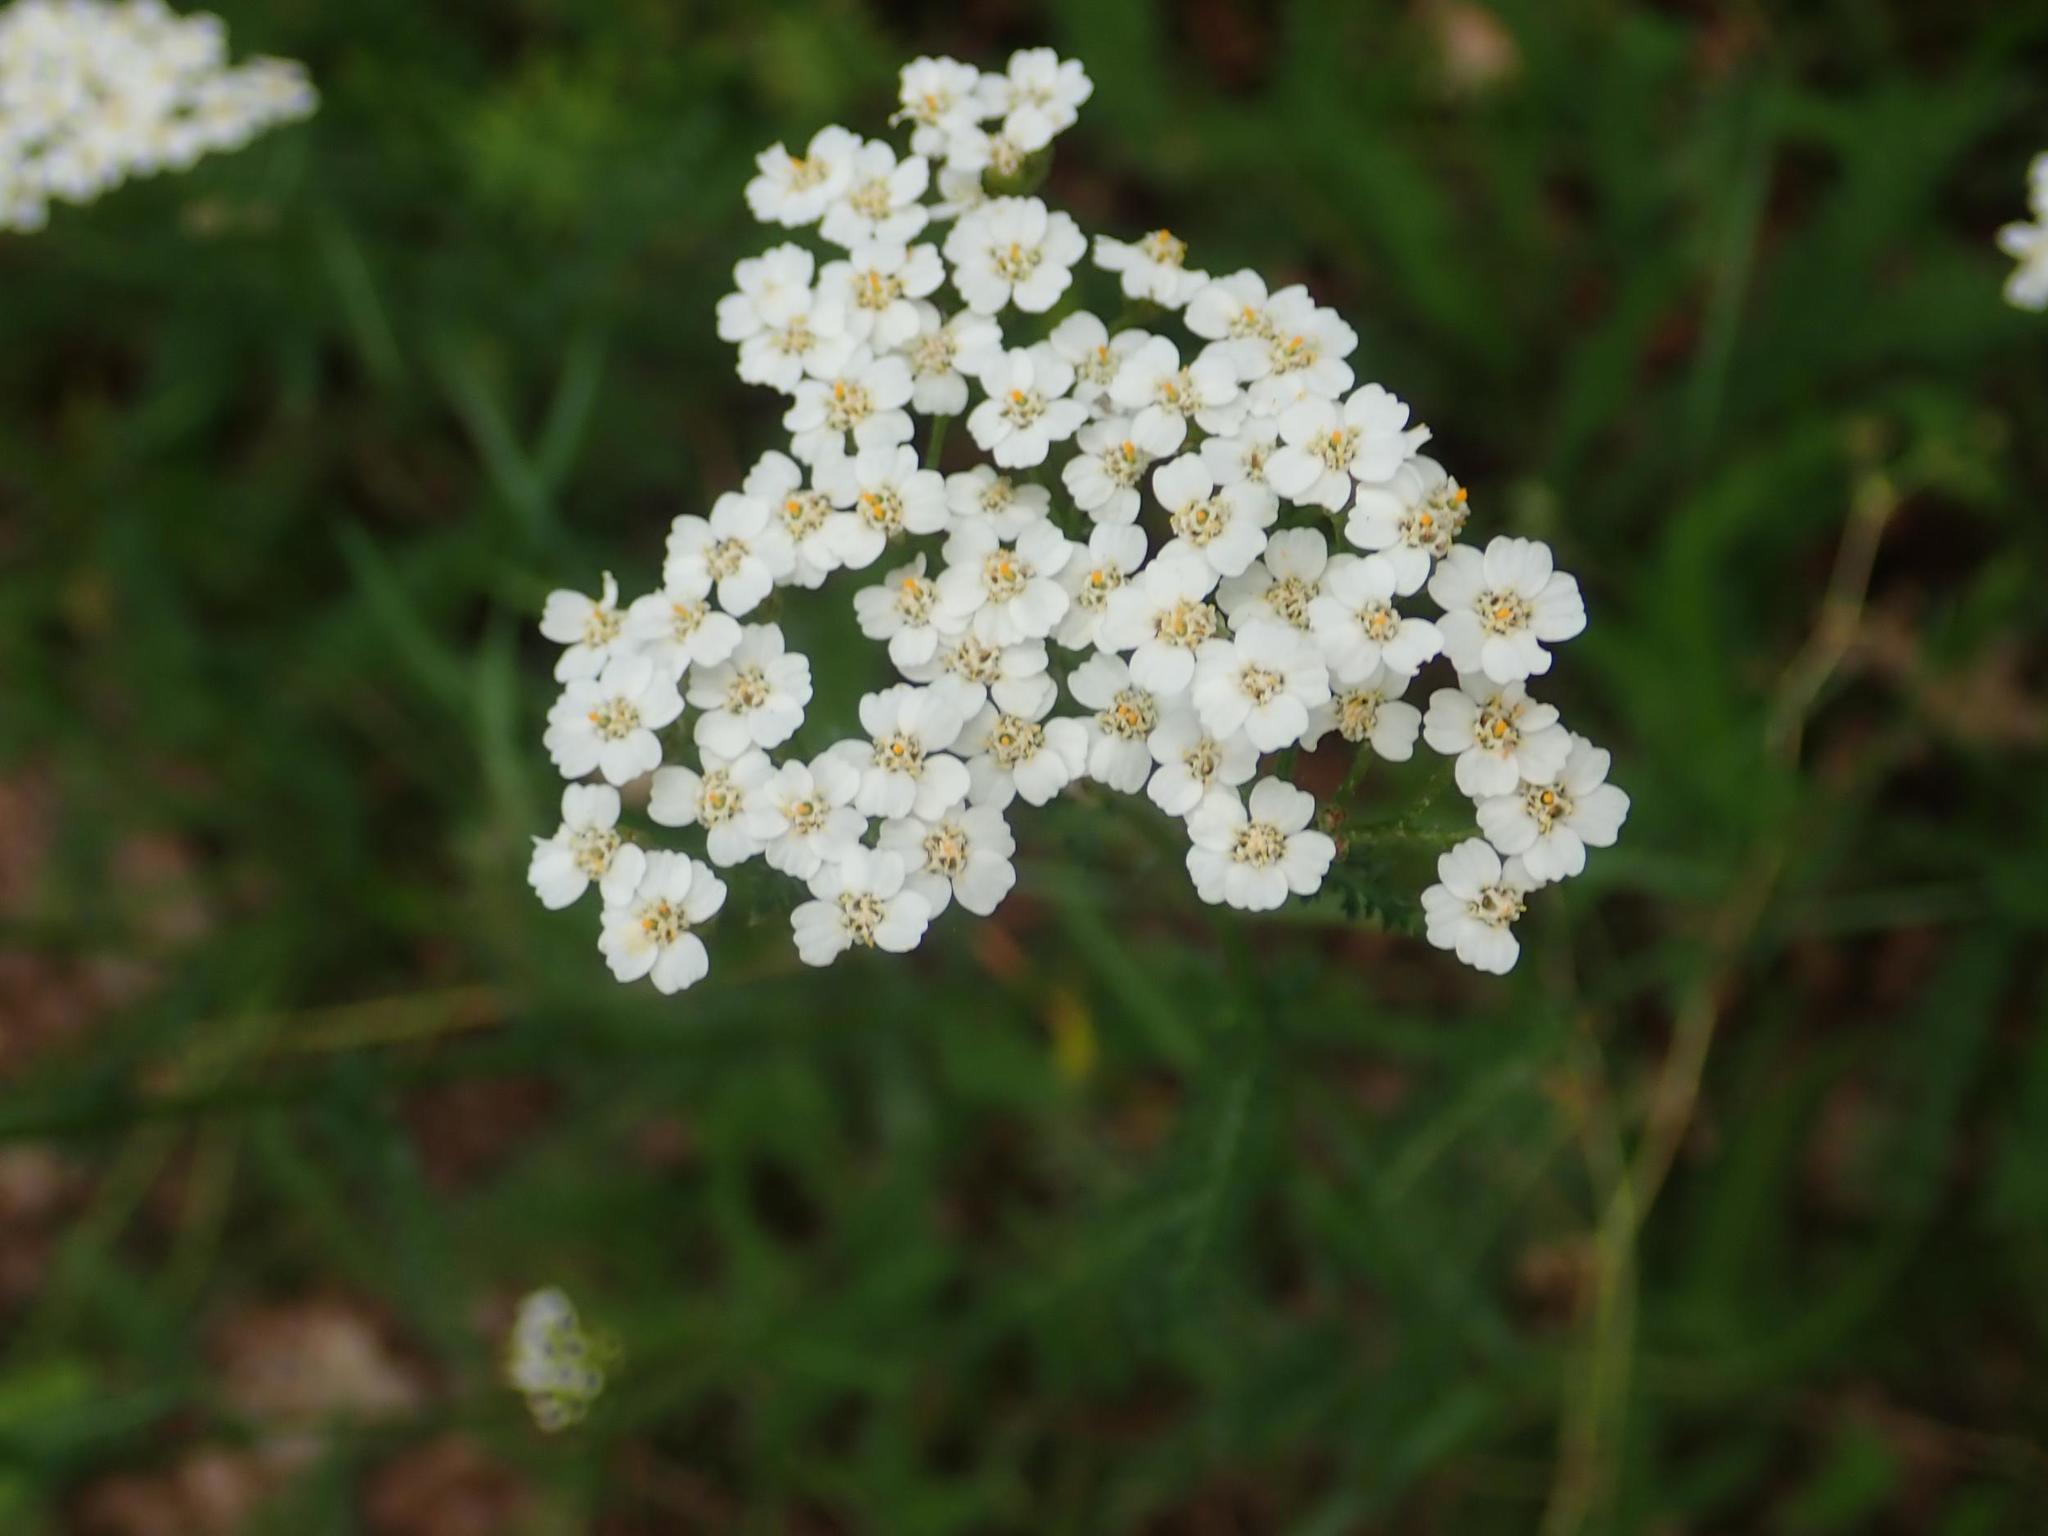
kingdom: Plantae
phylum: Tracheophyta
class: Magnoliopsida
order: Asterales
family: Asteraceae
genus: Achillea
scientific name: Achillea millefolium
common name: Yarrow
